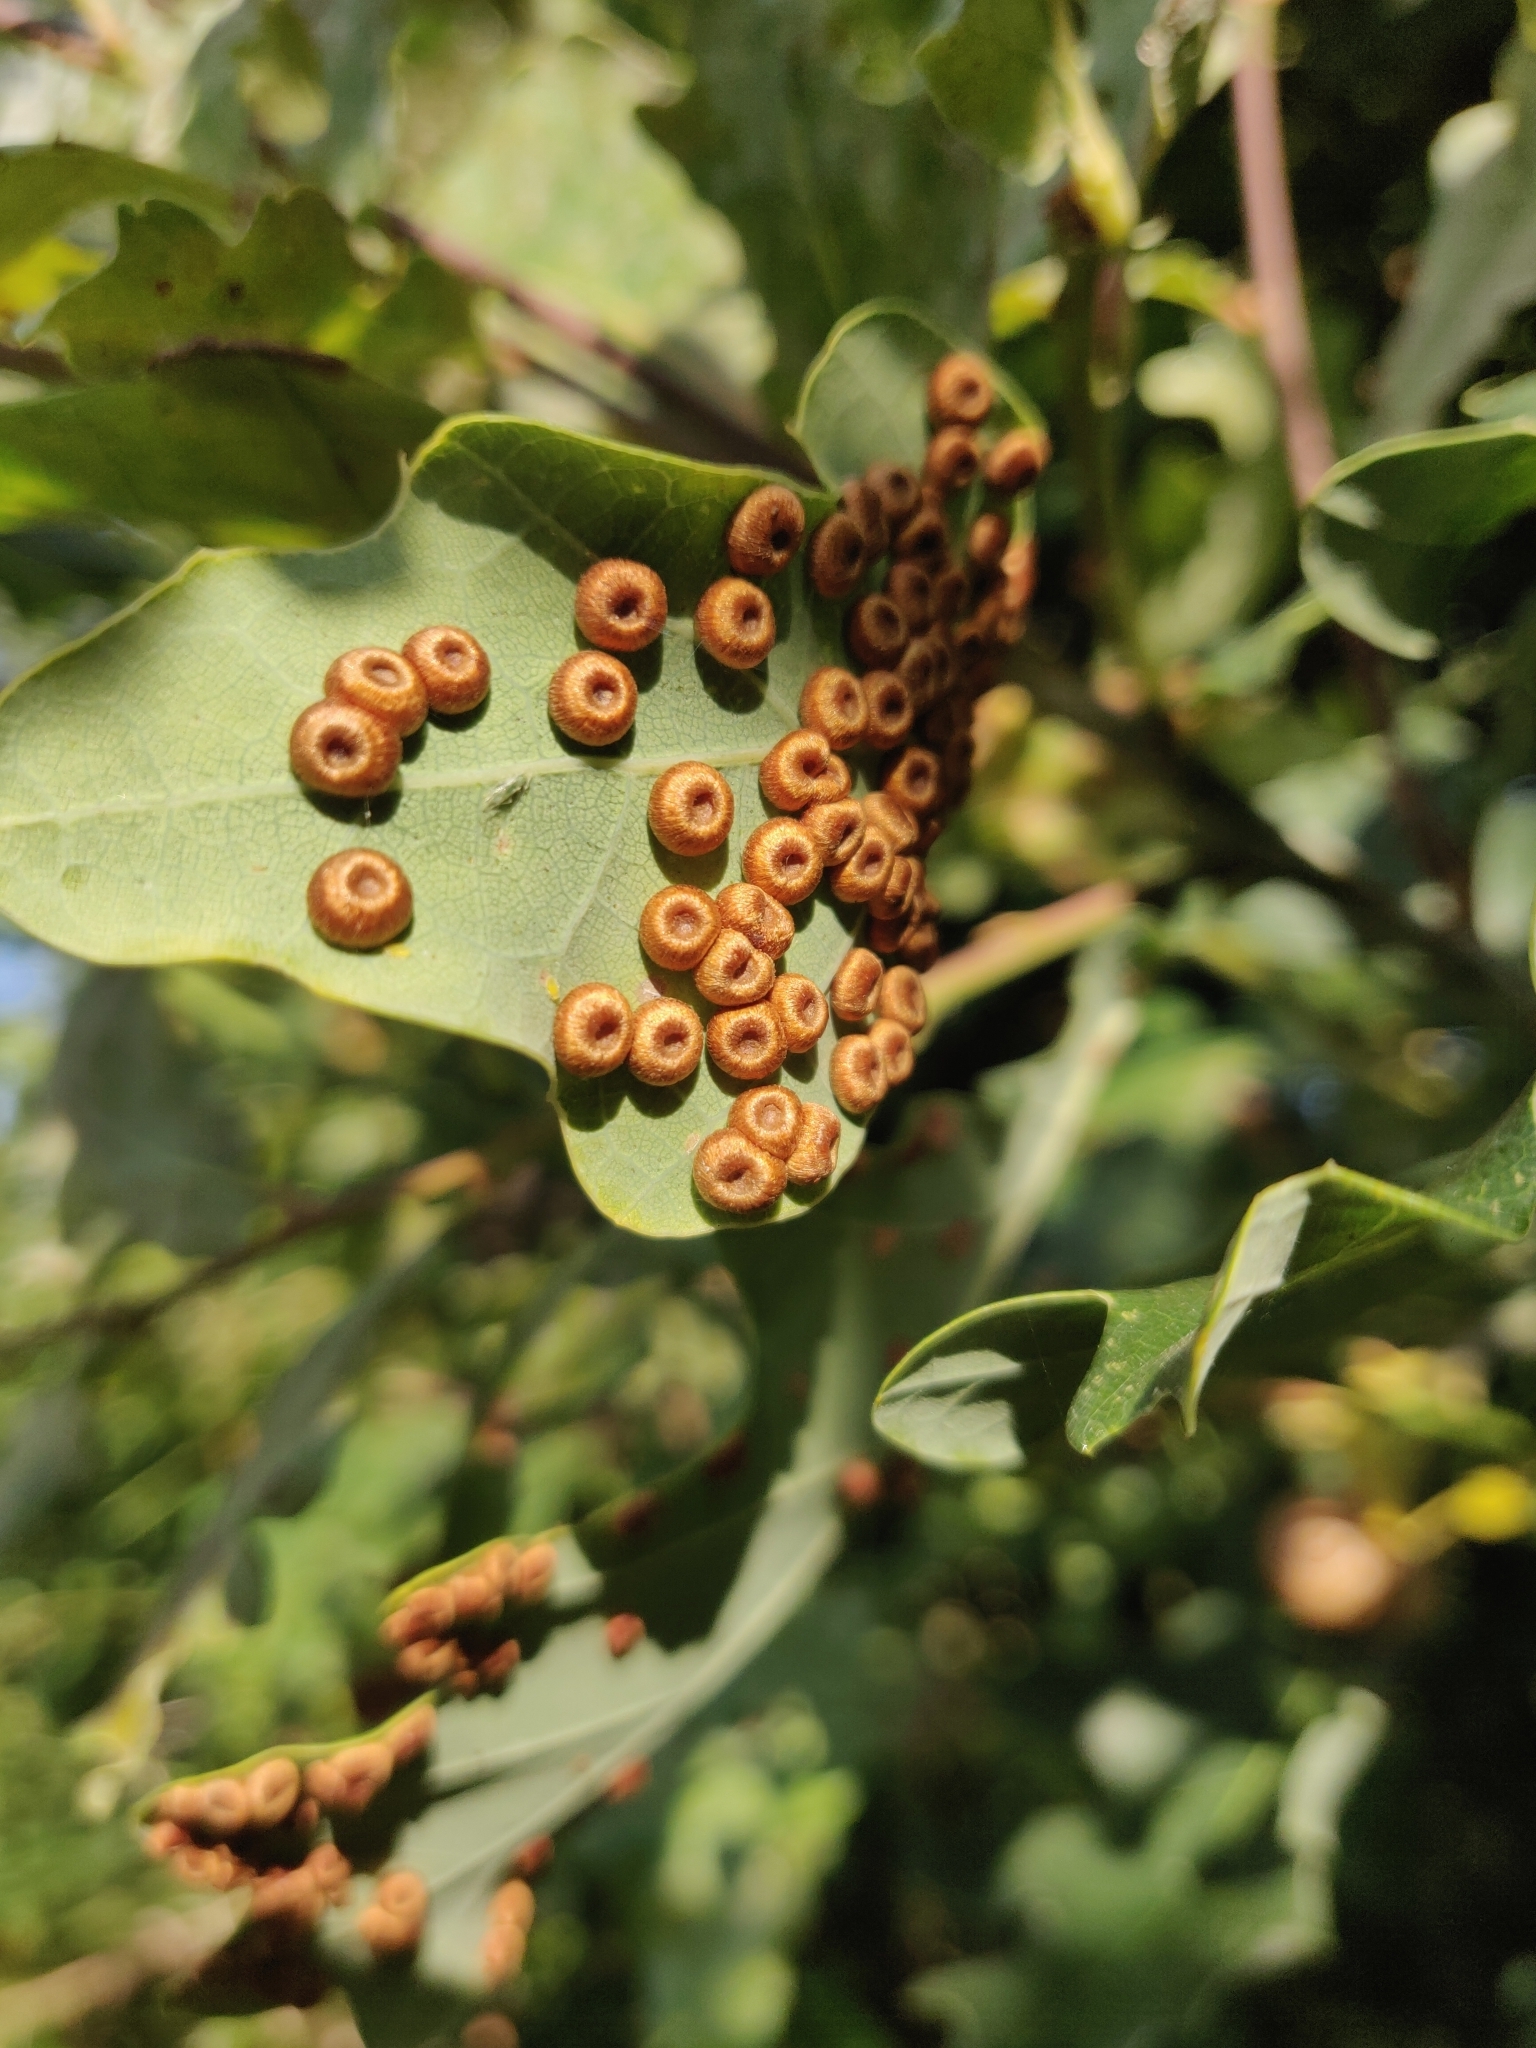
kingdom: Animalia
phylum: Arthropoda
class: Insecta
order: Hymenoptera
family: Cynipidae
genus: Neuroterus
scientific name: Neuroterus numismalis
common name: Silk-button spangle gall
